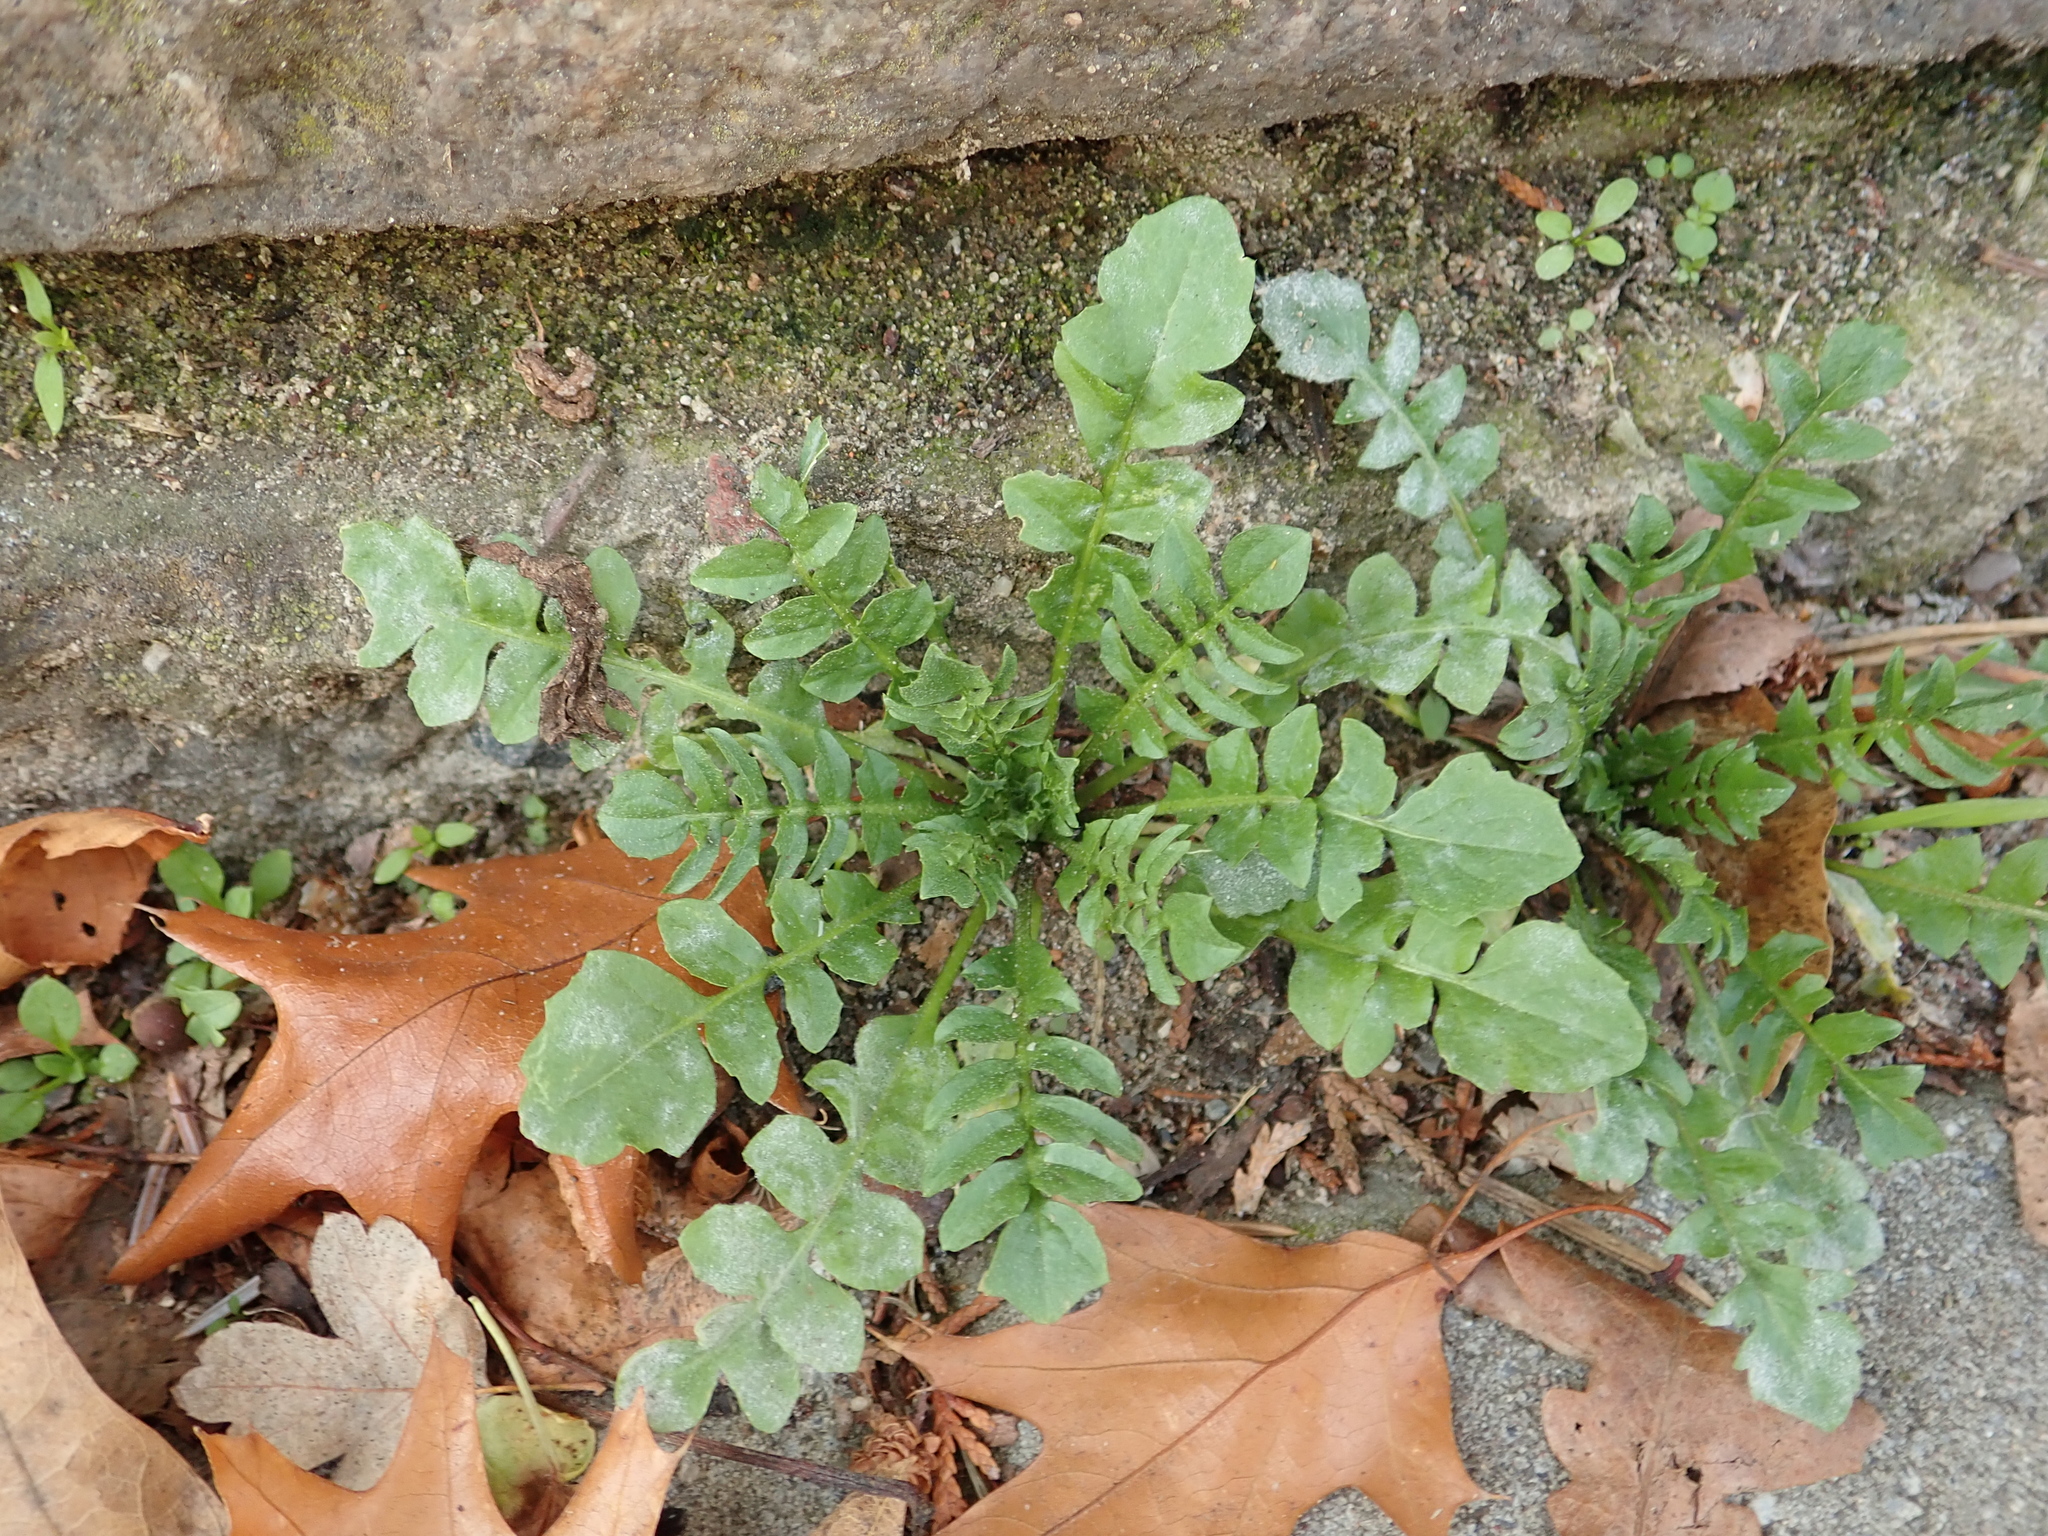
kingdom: Plantae
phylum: Tracheophyta
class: Magnoliopsida
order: Brassicales
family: Brassicaceae
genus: Capsella
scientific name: Capsella bursa-pastoris
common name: Shepherd's purse
